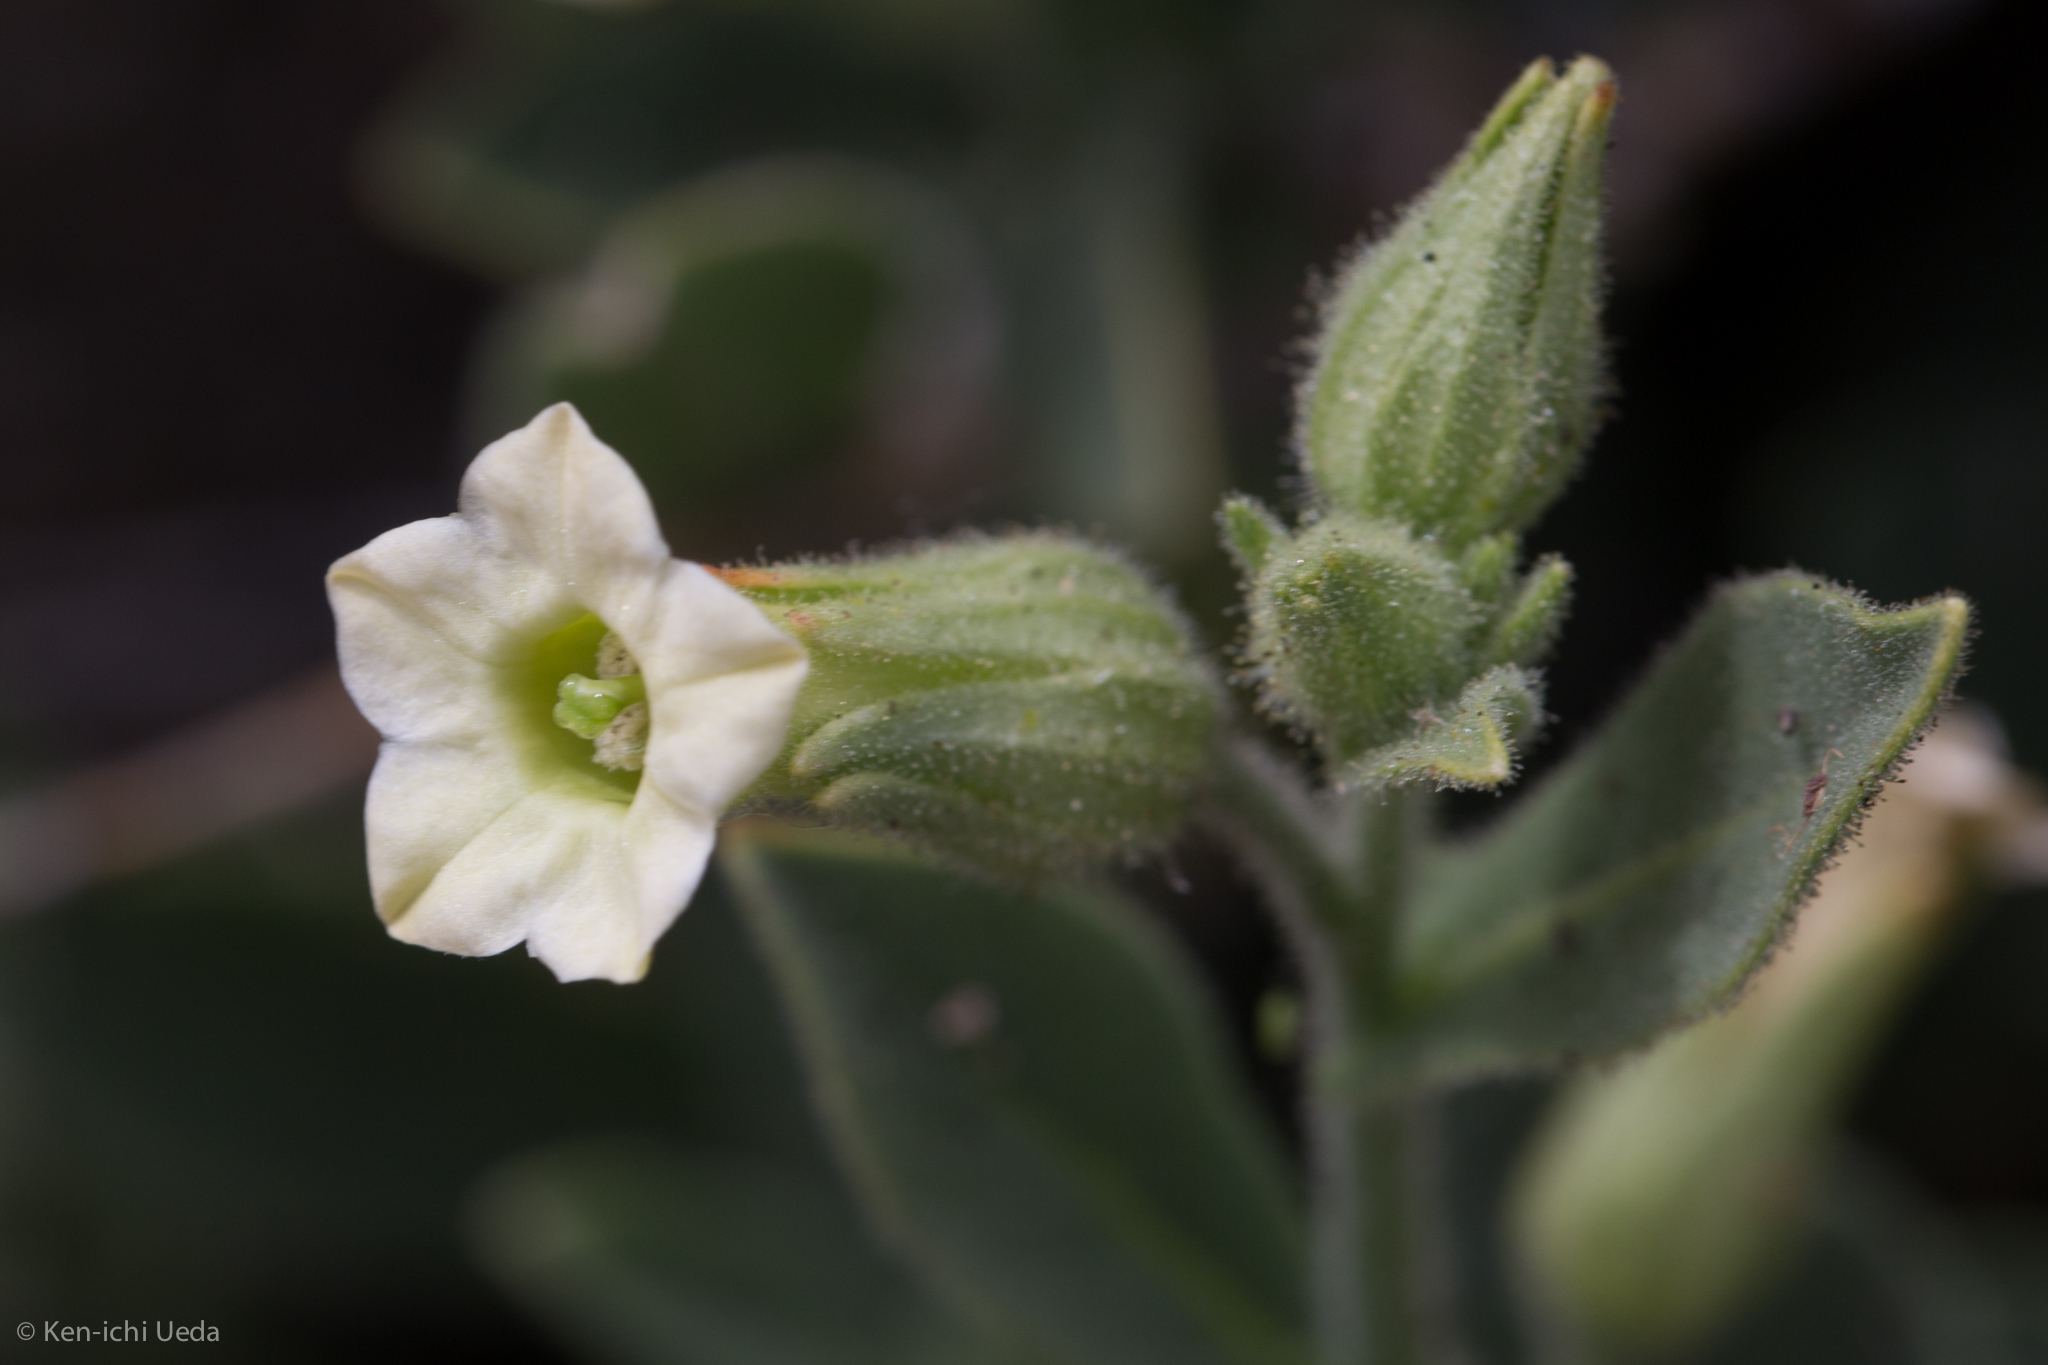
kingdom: Plantae
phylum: Tracheophyta
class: Magnoliopsida
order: Solanales
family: Solanaceae
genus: Nicotiana
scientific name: Nicotiana obtusifolia
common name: Desert tobacco
